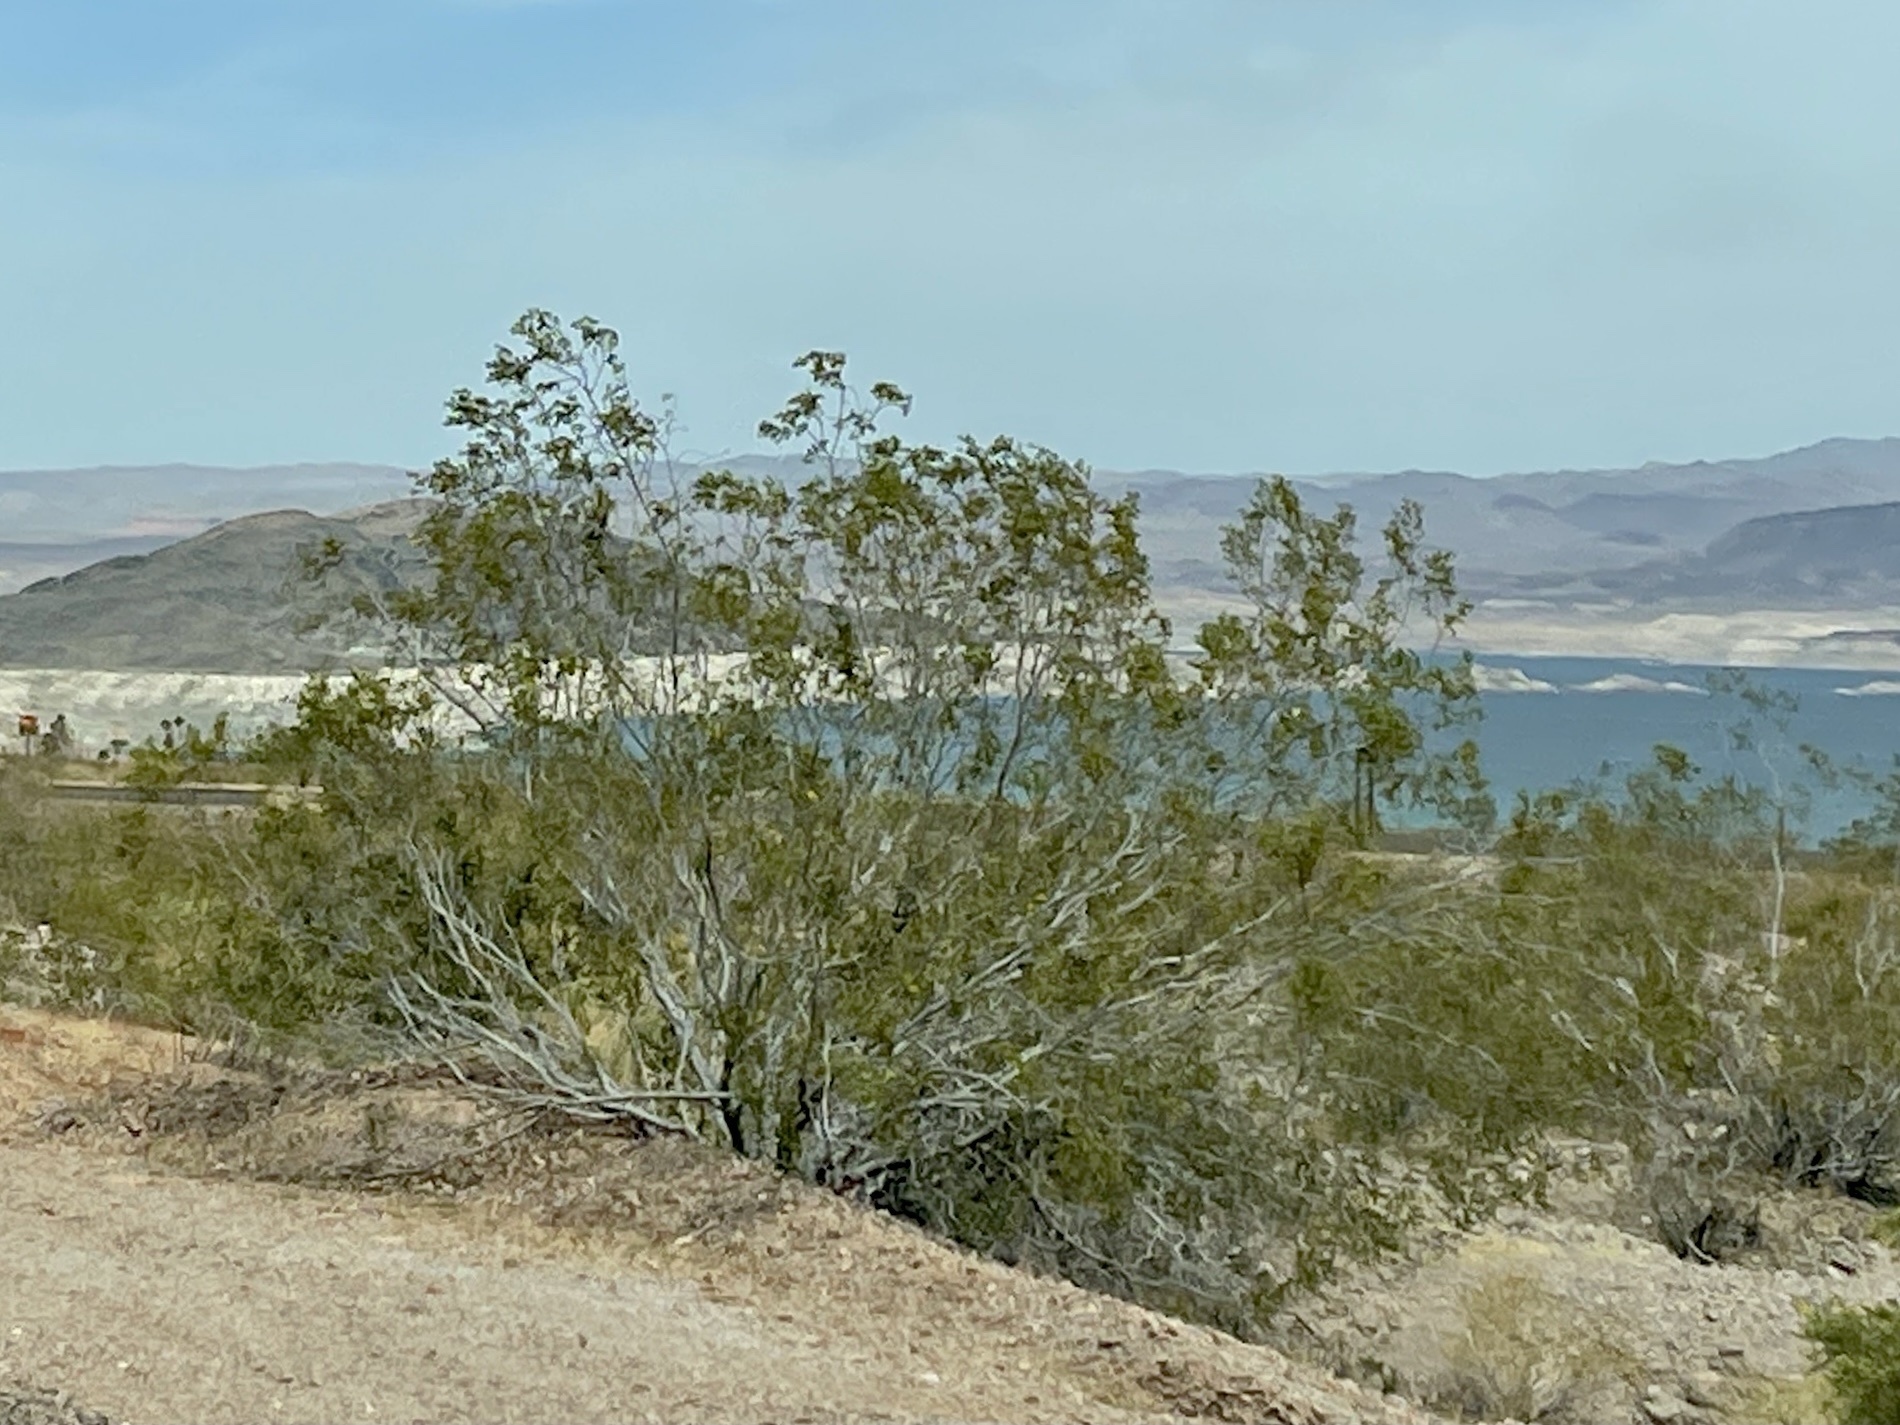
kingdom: Plantae
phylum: Tracheophyta
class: Magnoliopsida
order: Zygophyllales
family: Zygophyllaceae
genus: Larrea
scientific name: Larrea tridentata
